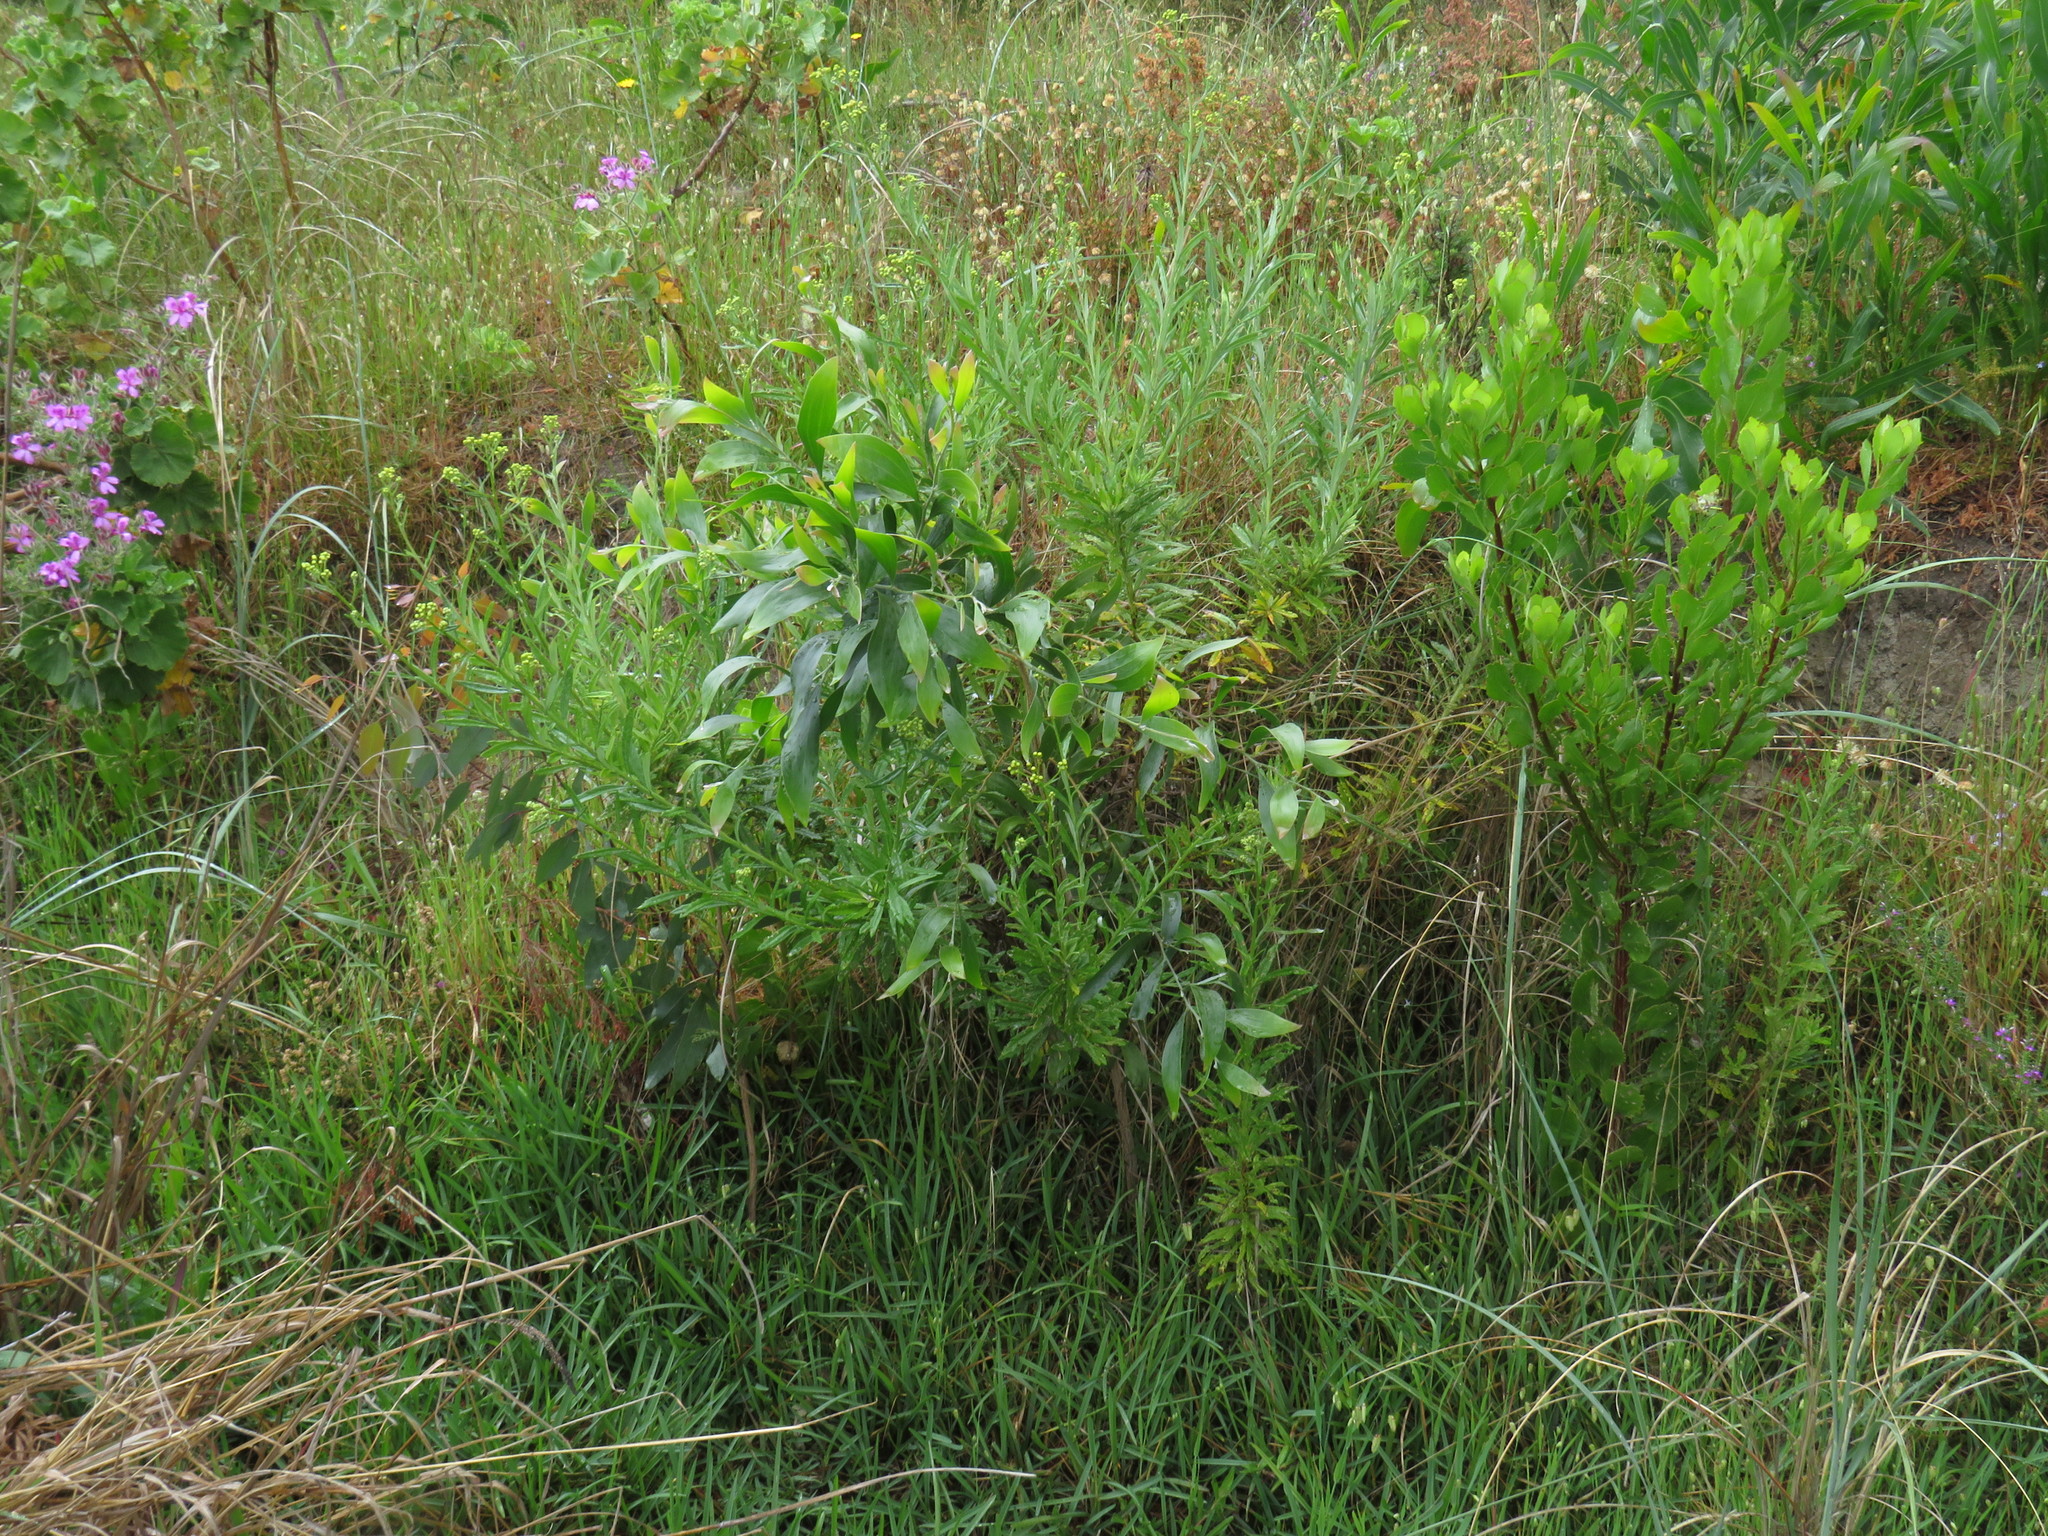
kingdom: Plantae
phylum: Tracheophyta
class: Magnoliopsida
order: Fabales
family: Fabaceae
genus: Acacia
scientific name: Acacia melanoxylon
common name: Blackwood
